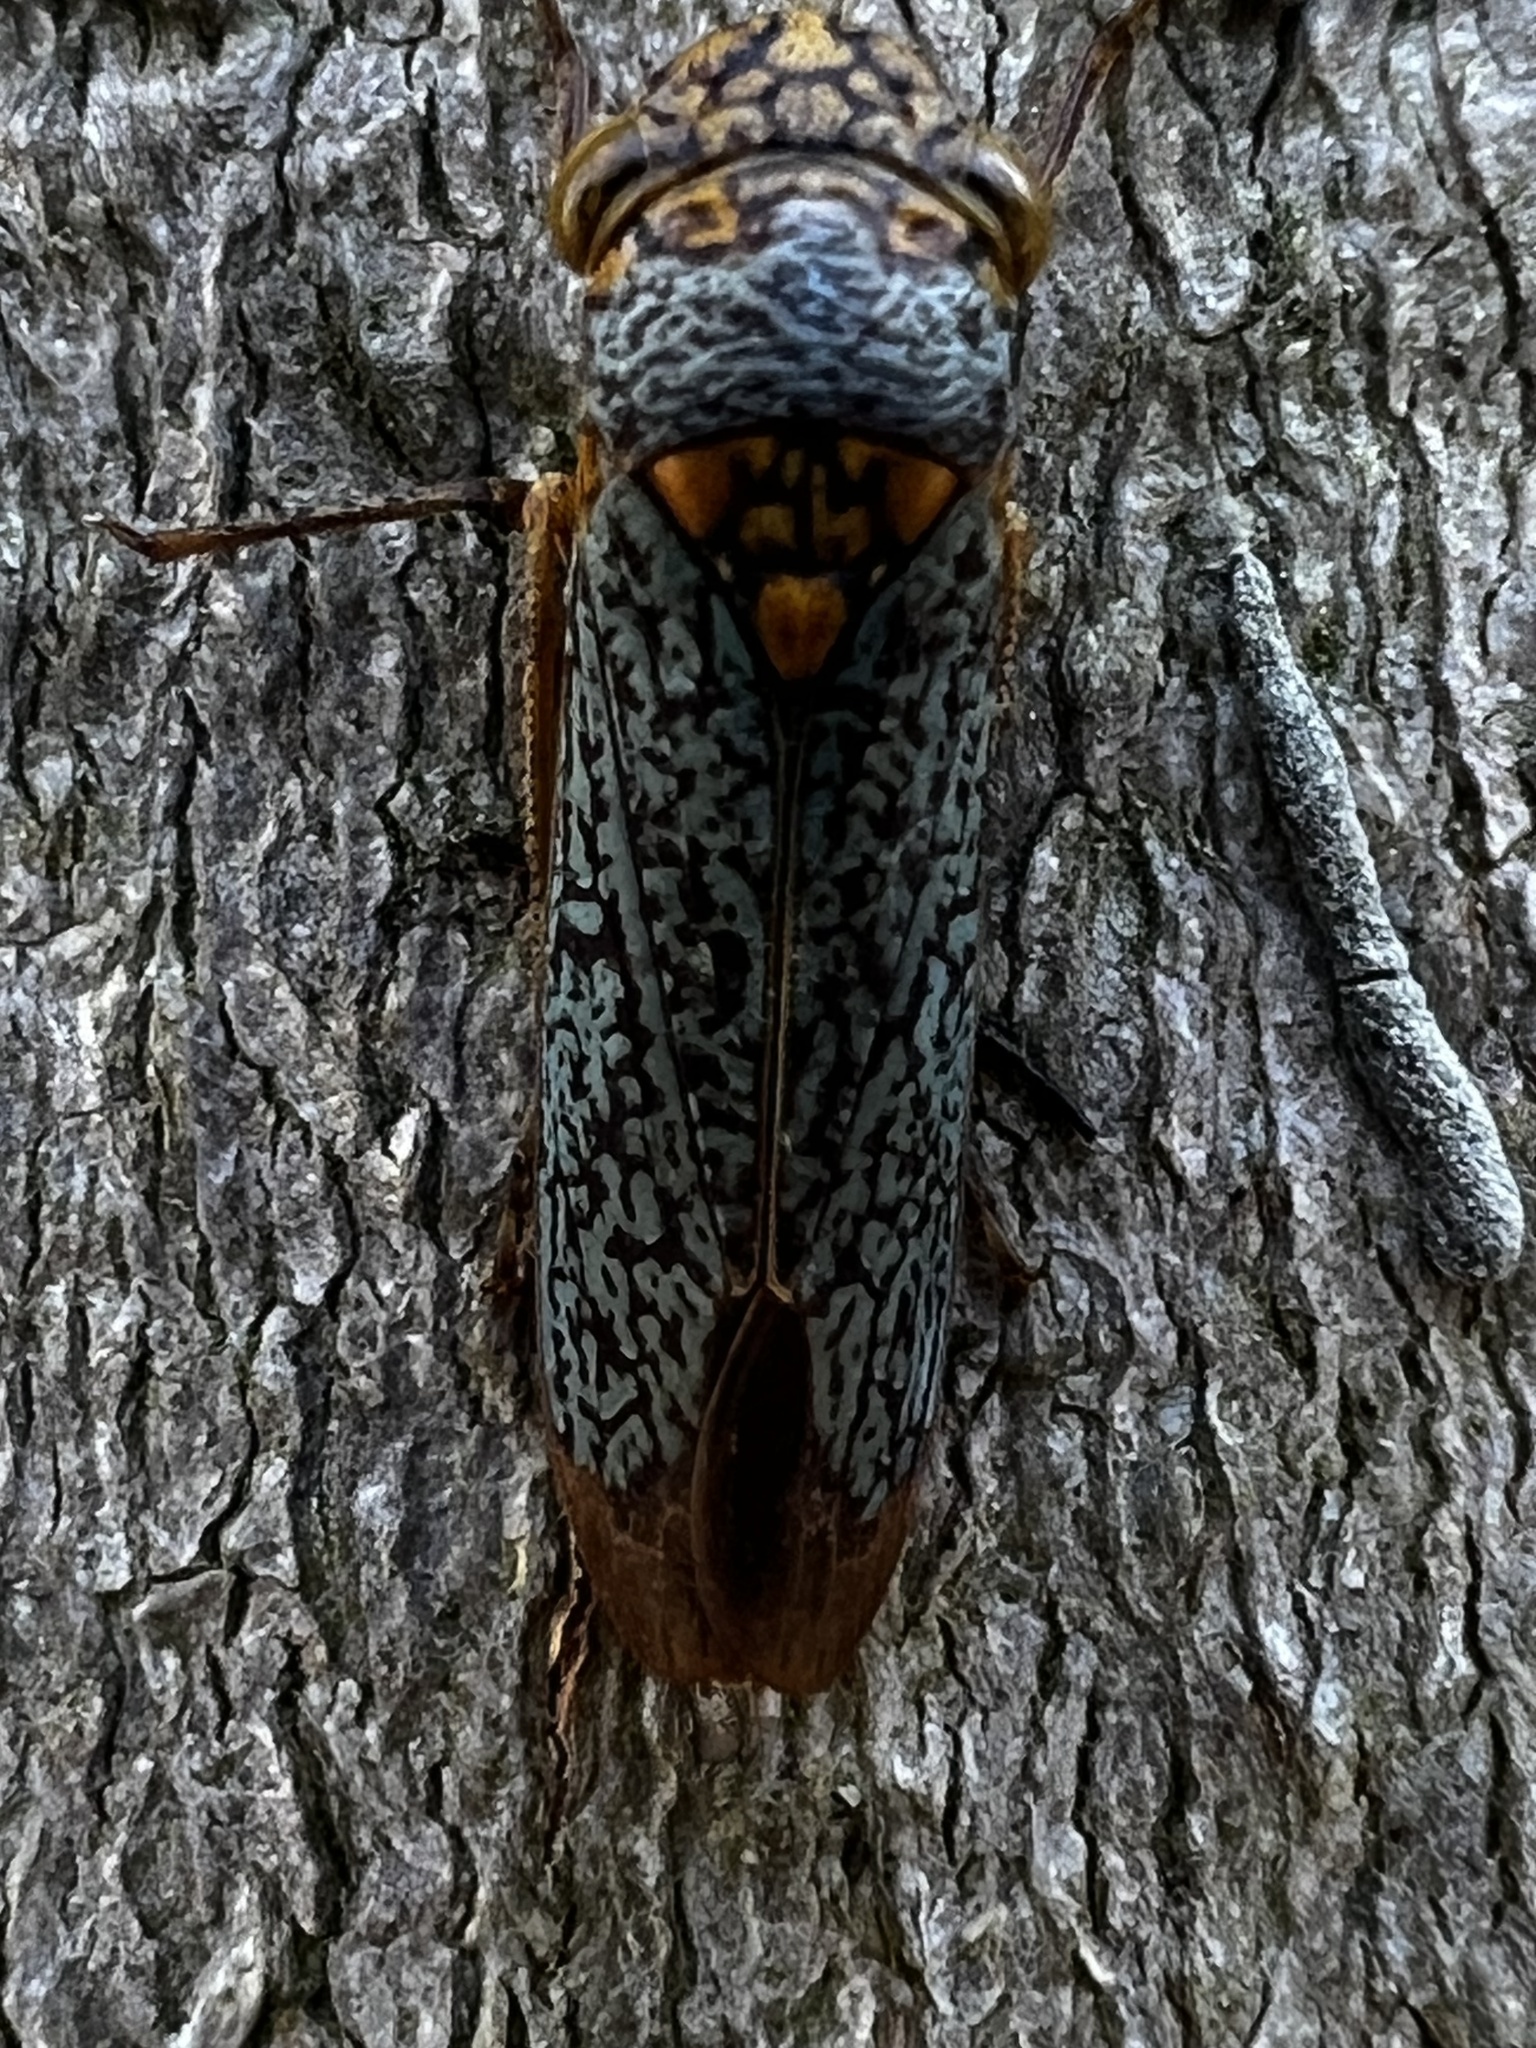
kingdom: Animalia
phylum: Arthropoda
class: Insecta
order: Hemiptera
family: Cicadellidae
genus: Oncometopia
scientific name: Oncometopia orbona
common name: Broad-headed sharpshooter
